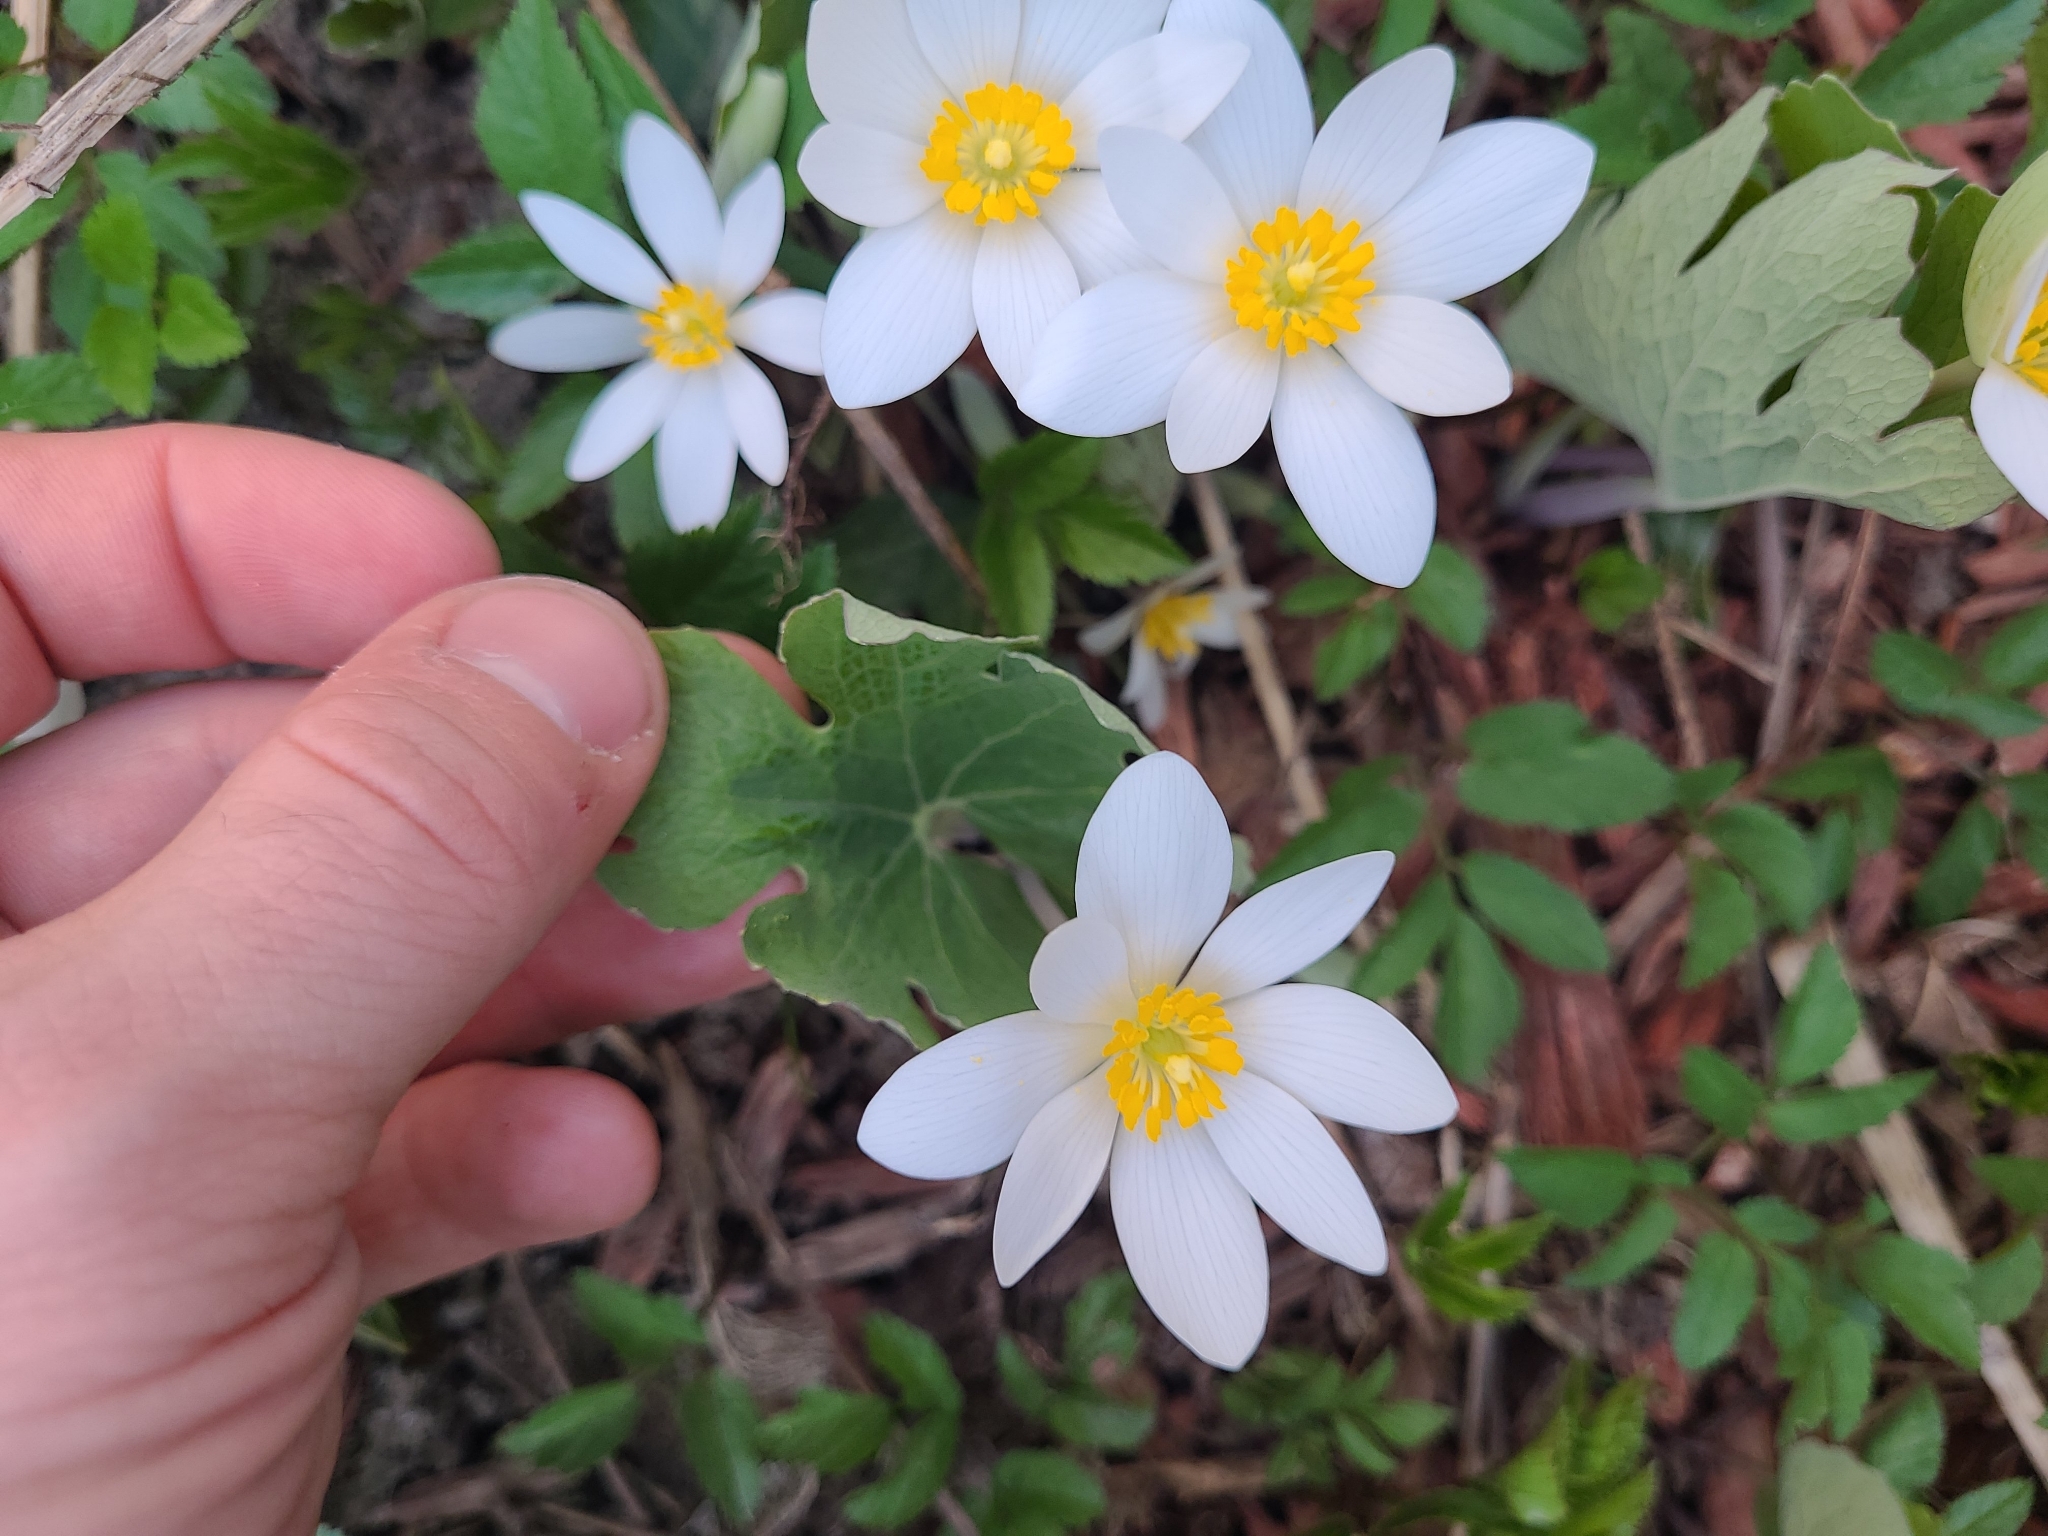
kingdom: Plantae
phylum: Tracheophyta
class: Magnoliopsida
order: Ranunculales
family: Papaveraceae
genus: Sanguinaria
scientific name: Sanguinaria canadensis
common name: Bloodroot
